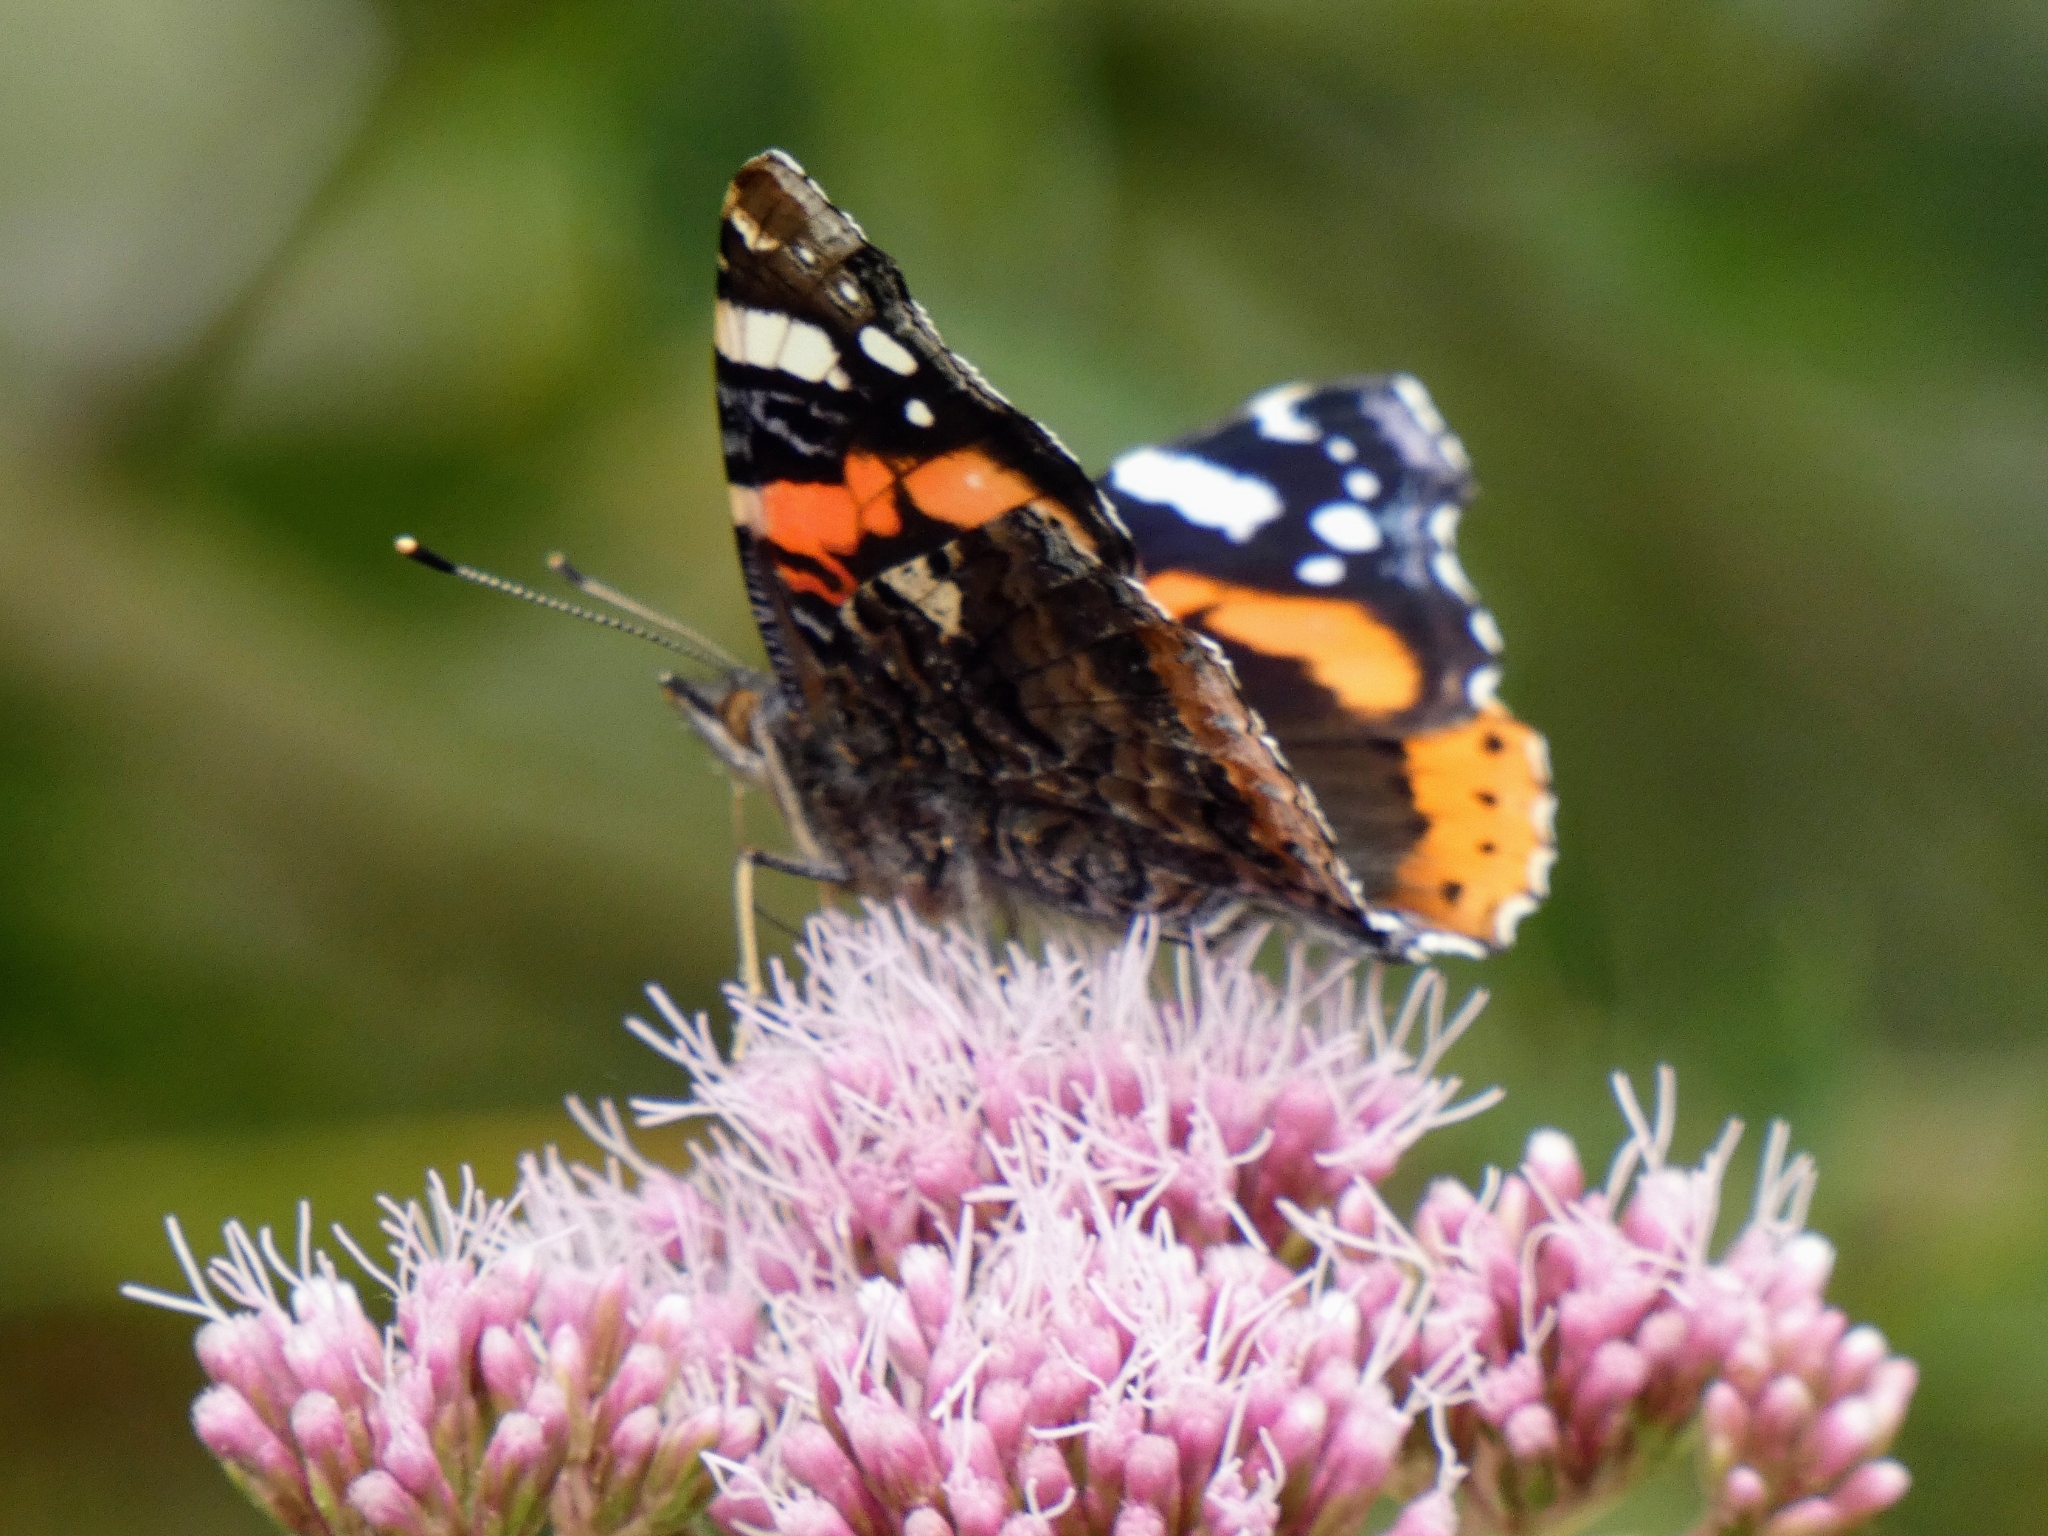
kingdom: Animalia
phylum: Arthropoda
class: Insecta
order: Lepidoptera
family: Nymphalidae
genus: Vanessa
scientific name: Vanessa atalanta
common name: Red admiral
